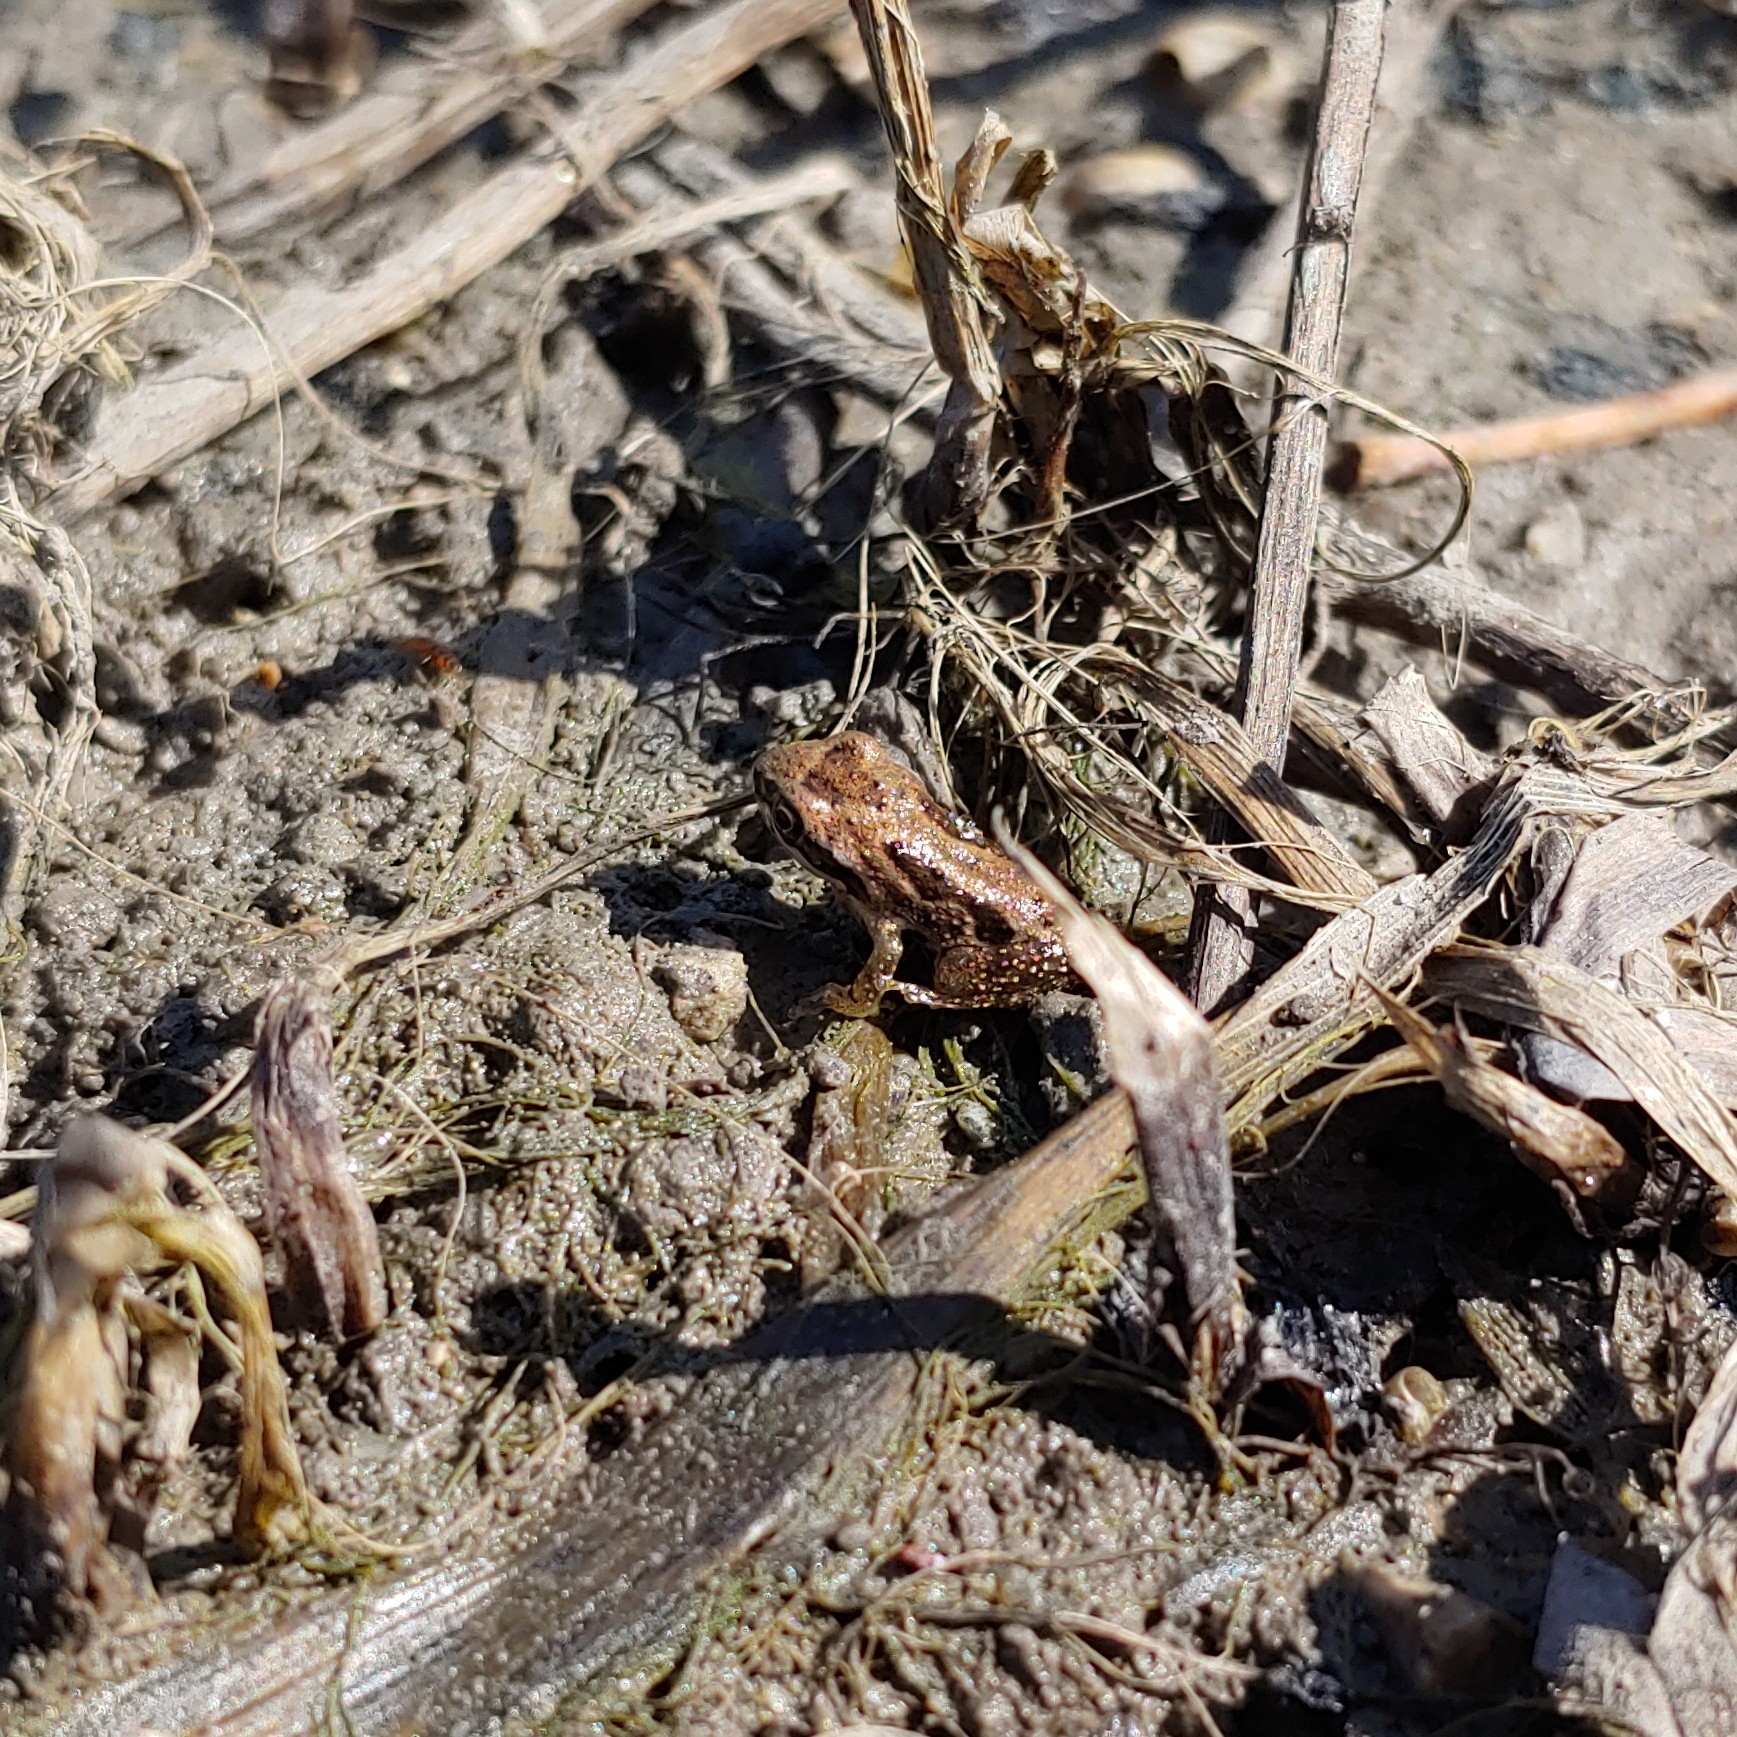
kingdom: Animalia
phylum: Chordata
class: Amphibia
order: Anura
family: Hylidae
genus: Pseudacris
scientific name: Pseudacris regilla
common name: Pacific chorus frog
